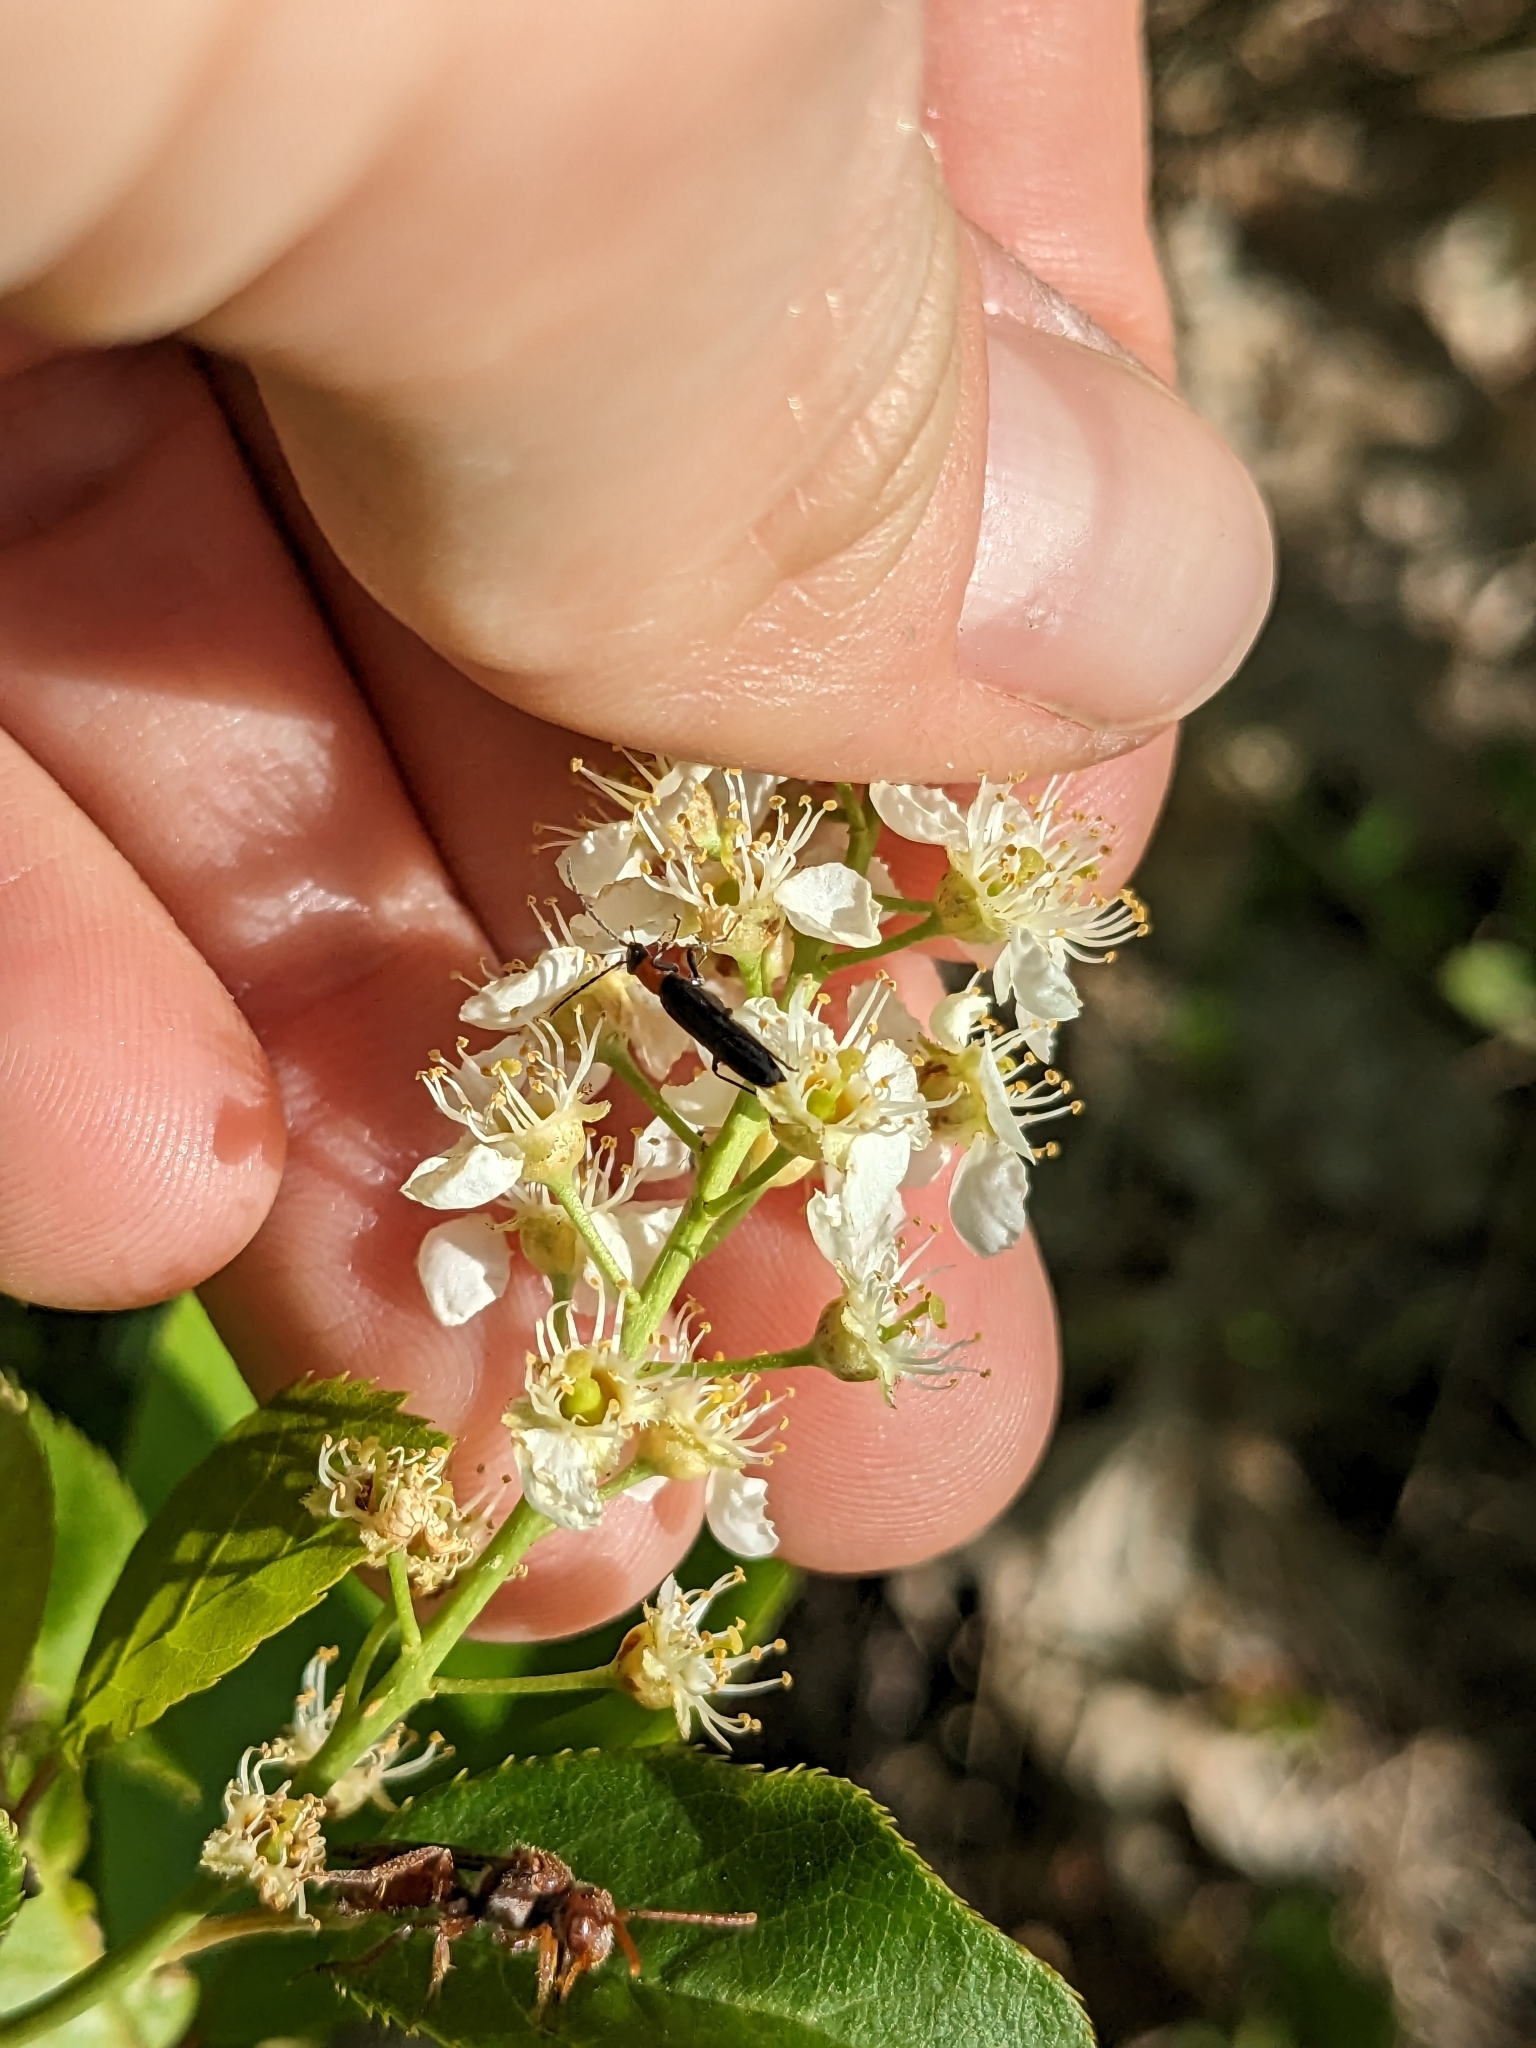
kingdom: Animalia
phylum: Arthropoda
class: Insecta
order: Coleoptera
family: Oedemeridae
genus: Ischnomera
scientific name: Ischnomera
